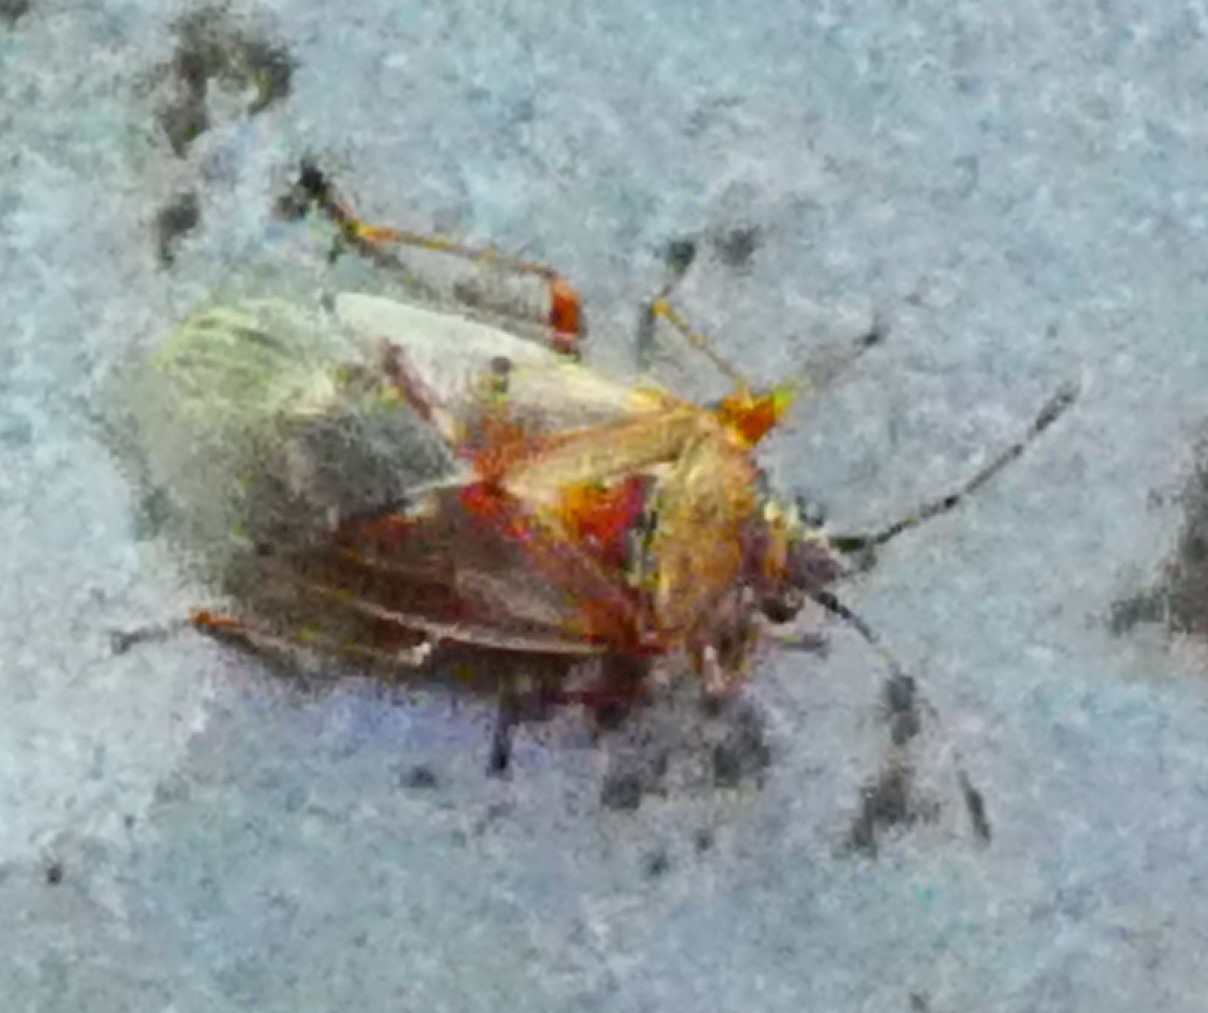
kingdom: Animalia
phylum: Arthropoda
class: Insecta
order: Hemiptera
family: Lygaeidae
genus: Kleidocerys
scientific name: Kleidocerys resedae
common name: Birch catkin bug
